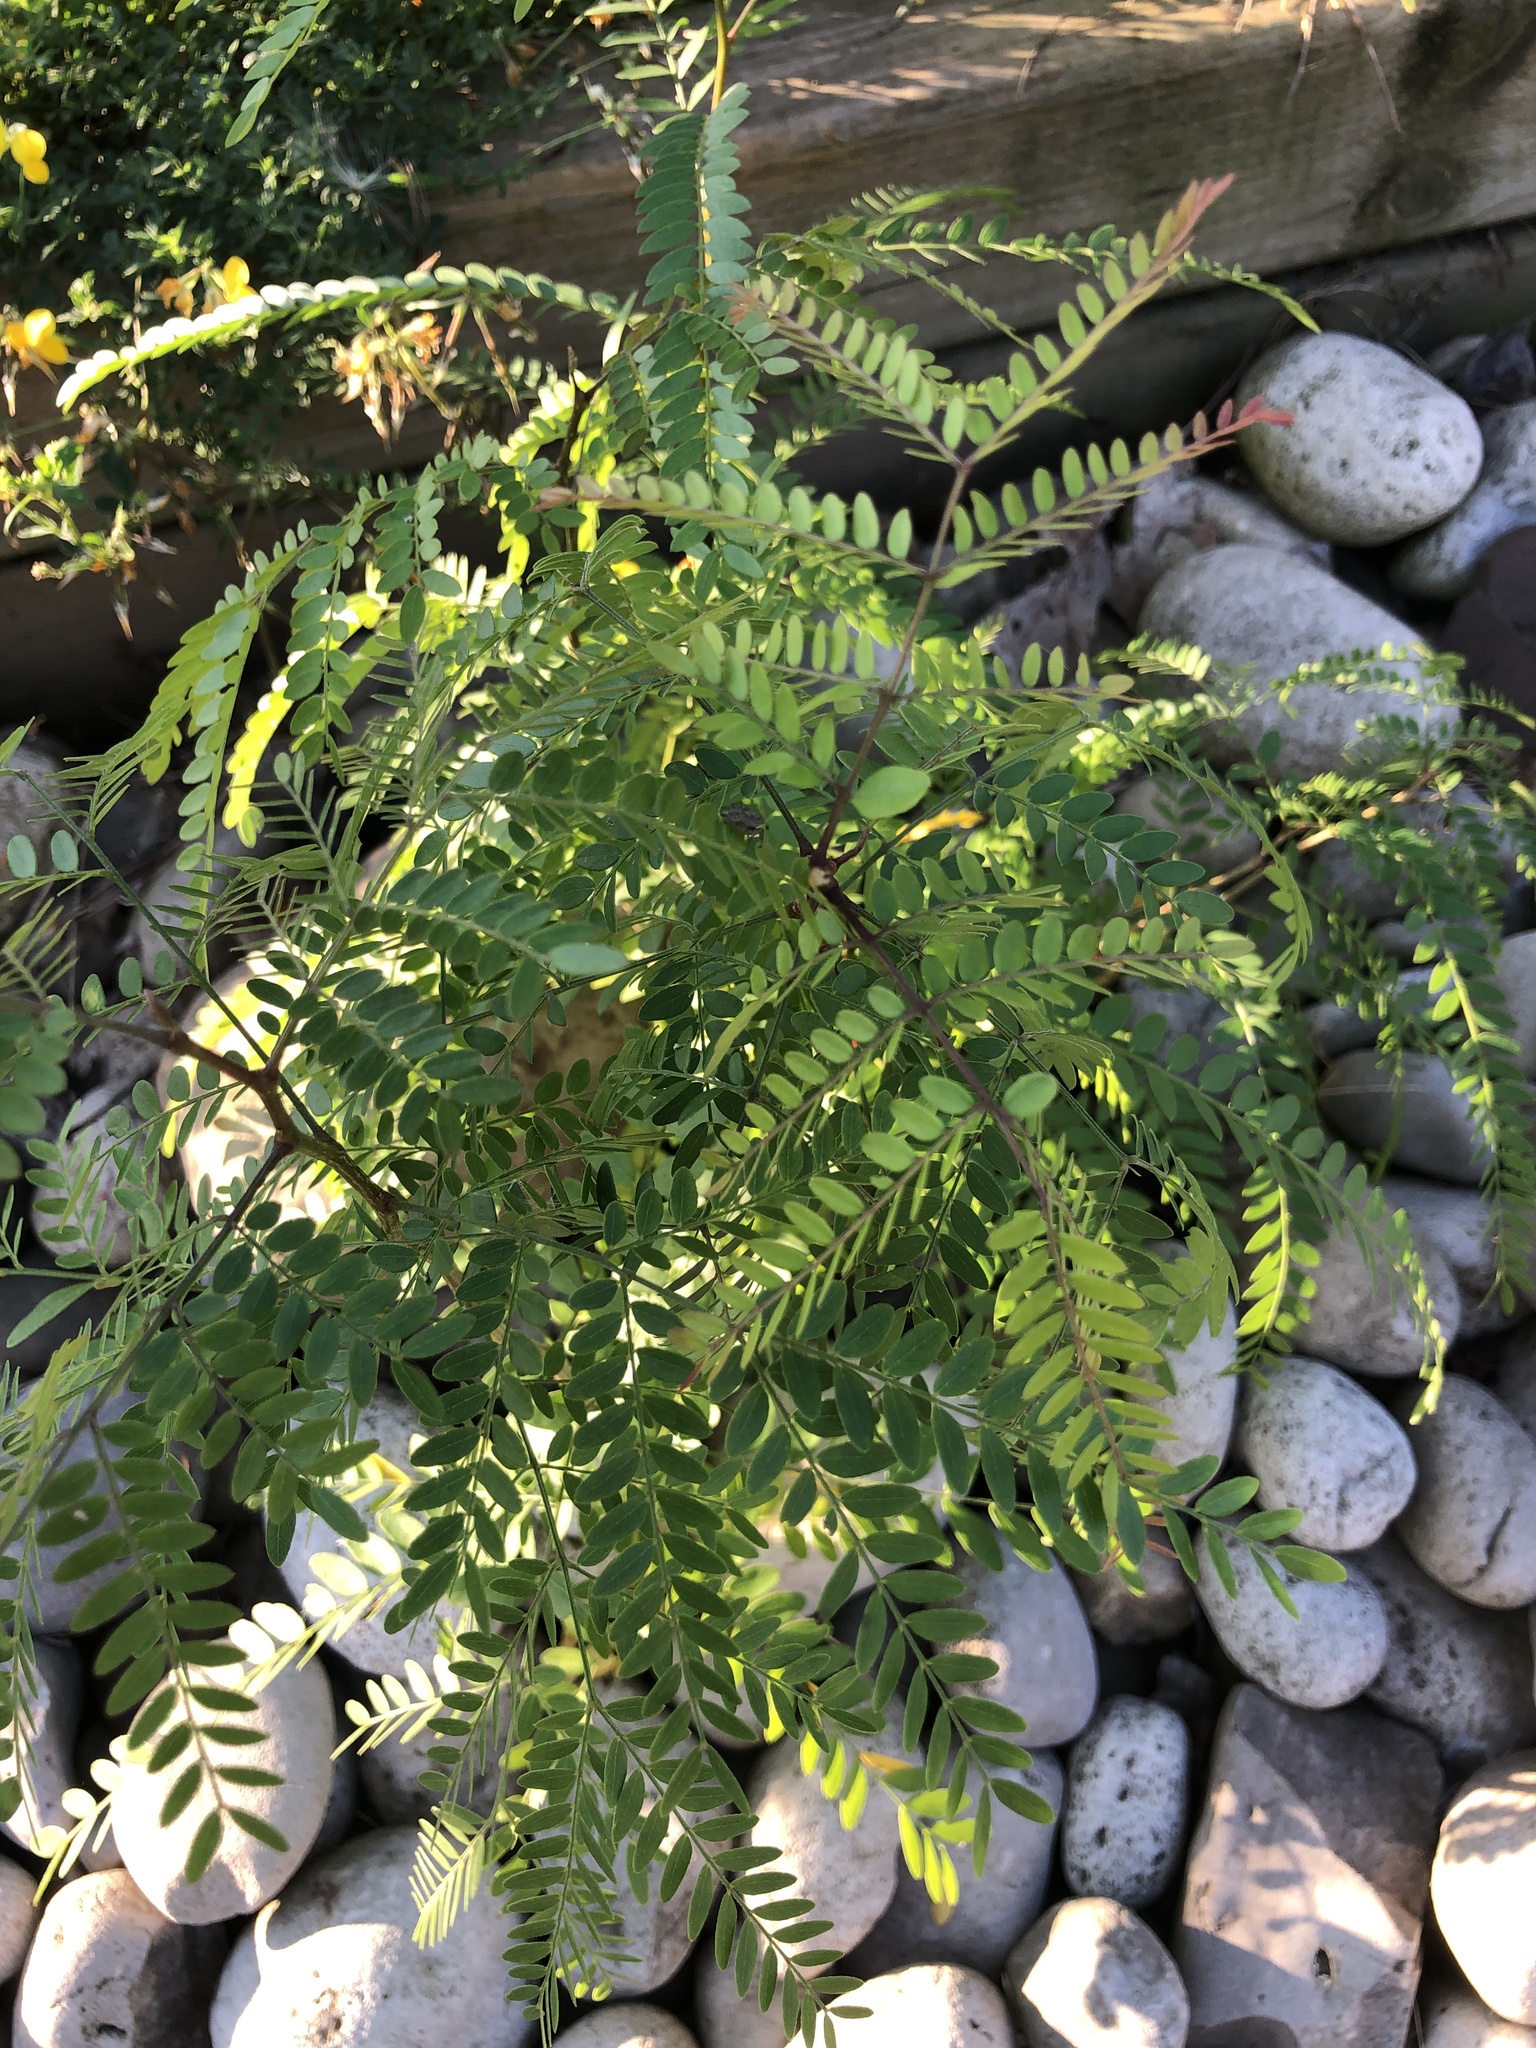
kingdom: Plantae
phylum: Tracheophyta
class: Magnoliopsida
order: Fabales
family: Fabaceae
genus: Gleditsia
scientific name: Gleditsia triacanthos
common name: Common honeylocust
